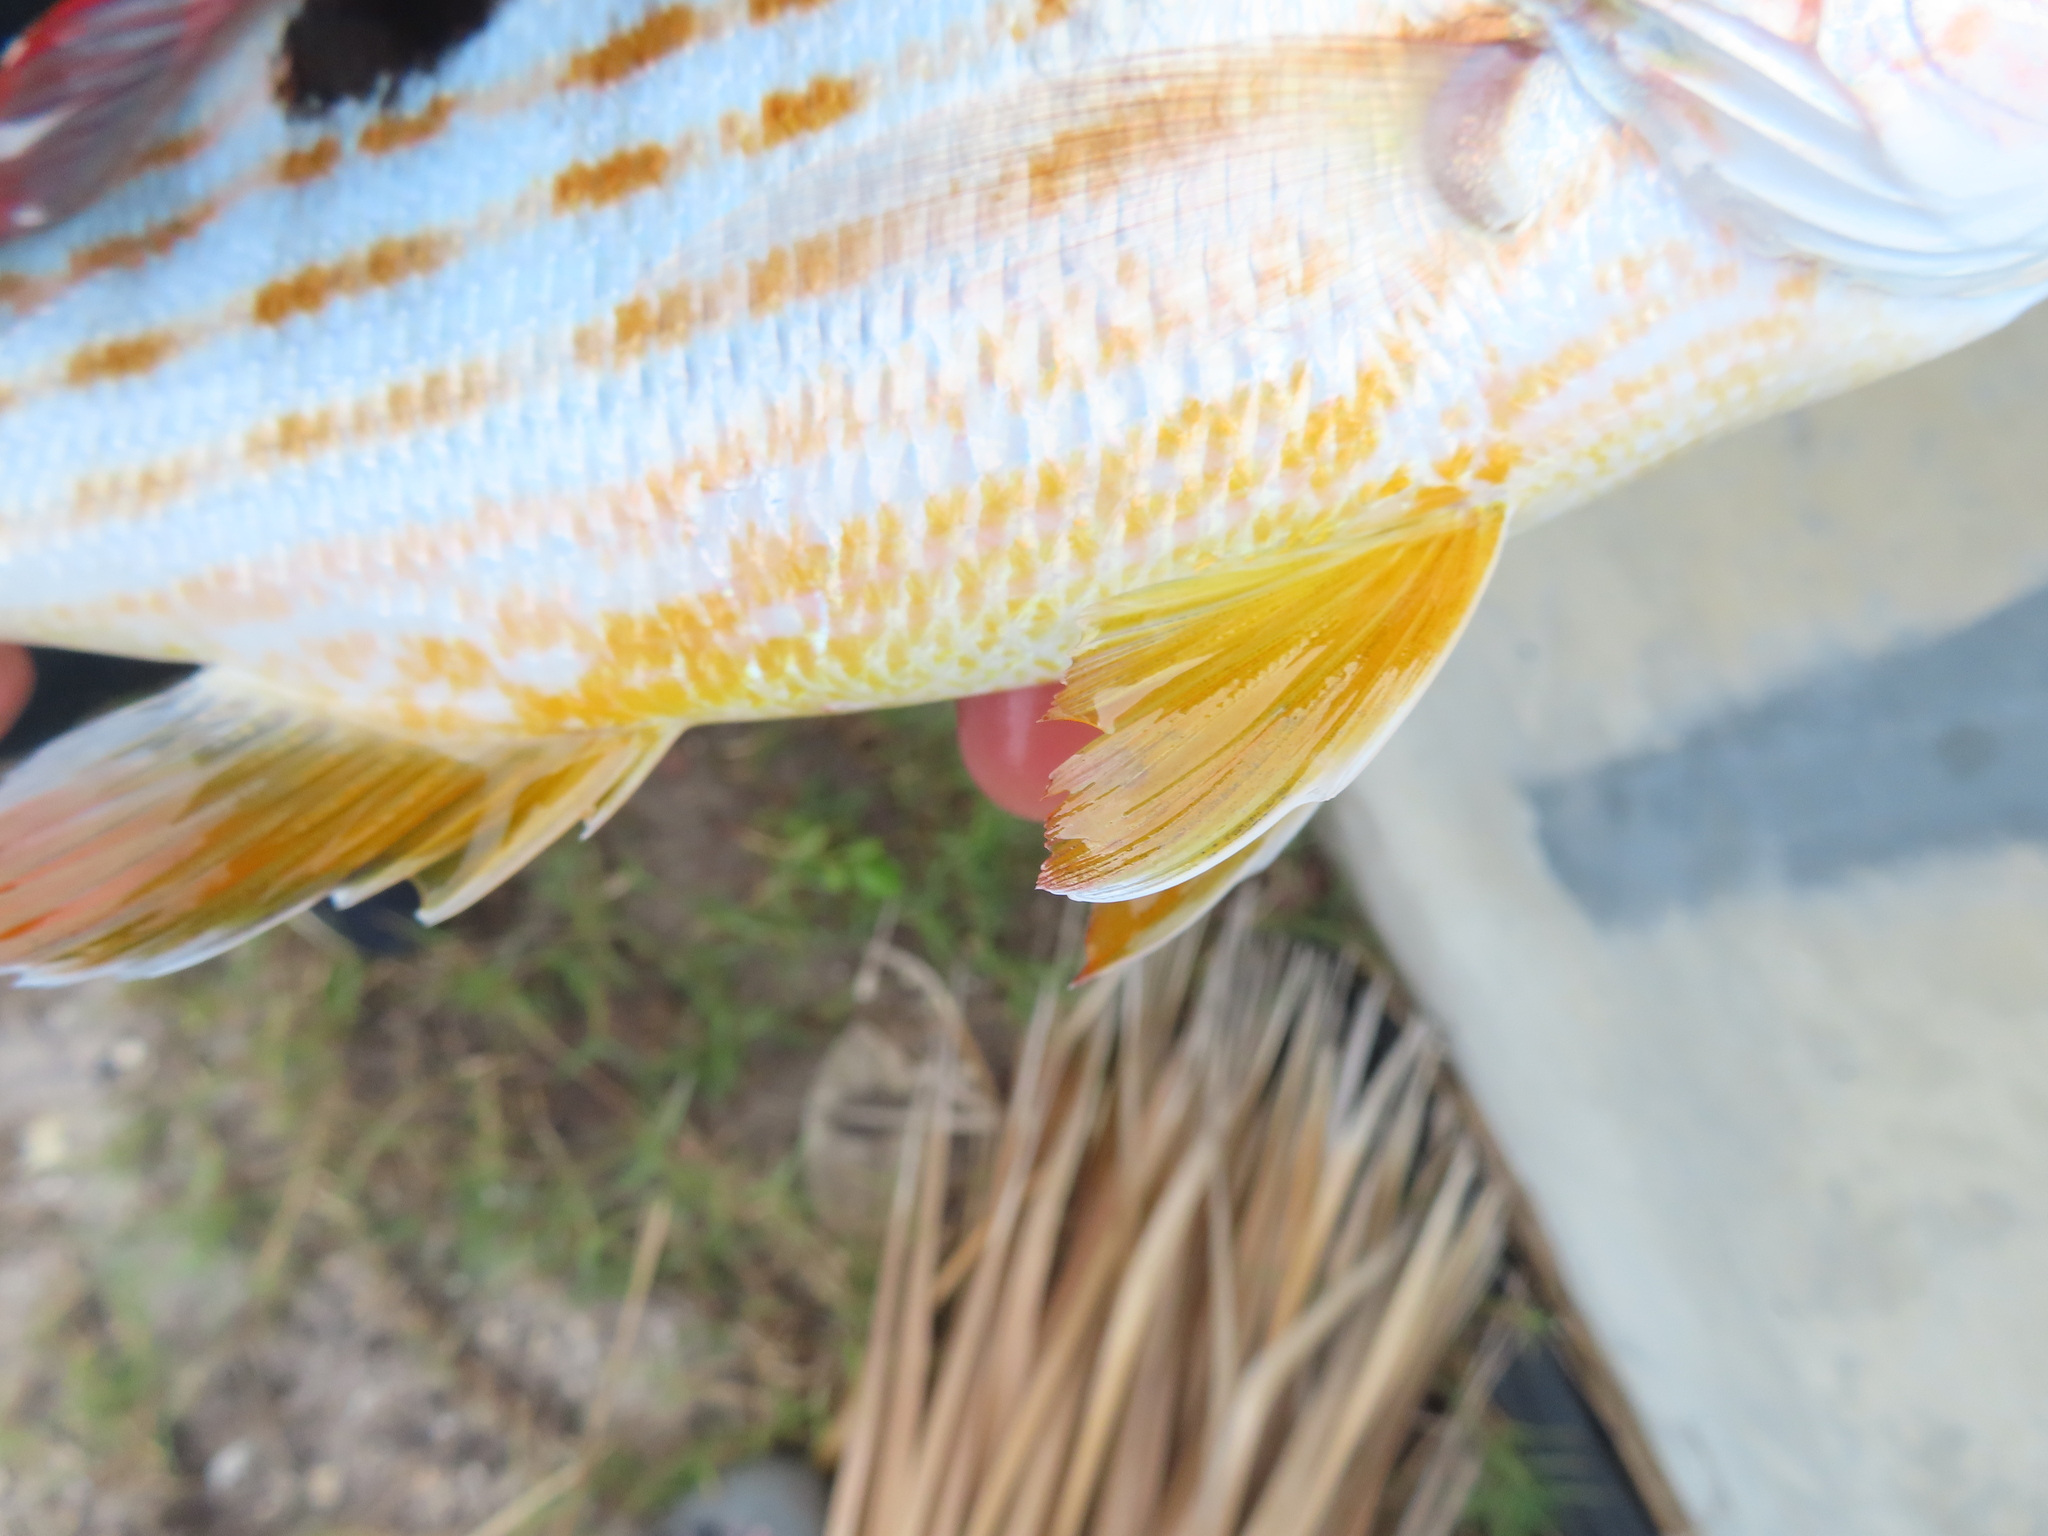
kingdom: Animalia
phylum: Chordata
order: Perciformes
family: Lutjanidae
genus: Lutjanus
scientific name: Lutjanus synagris
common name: Lane snapper
